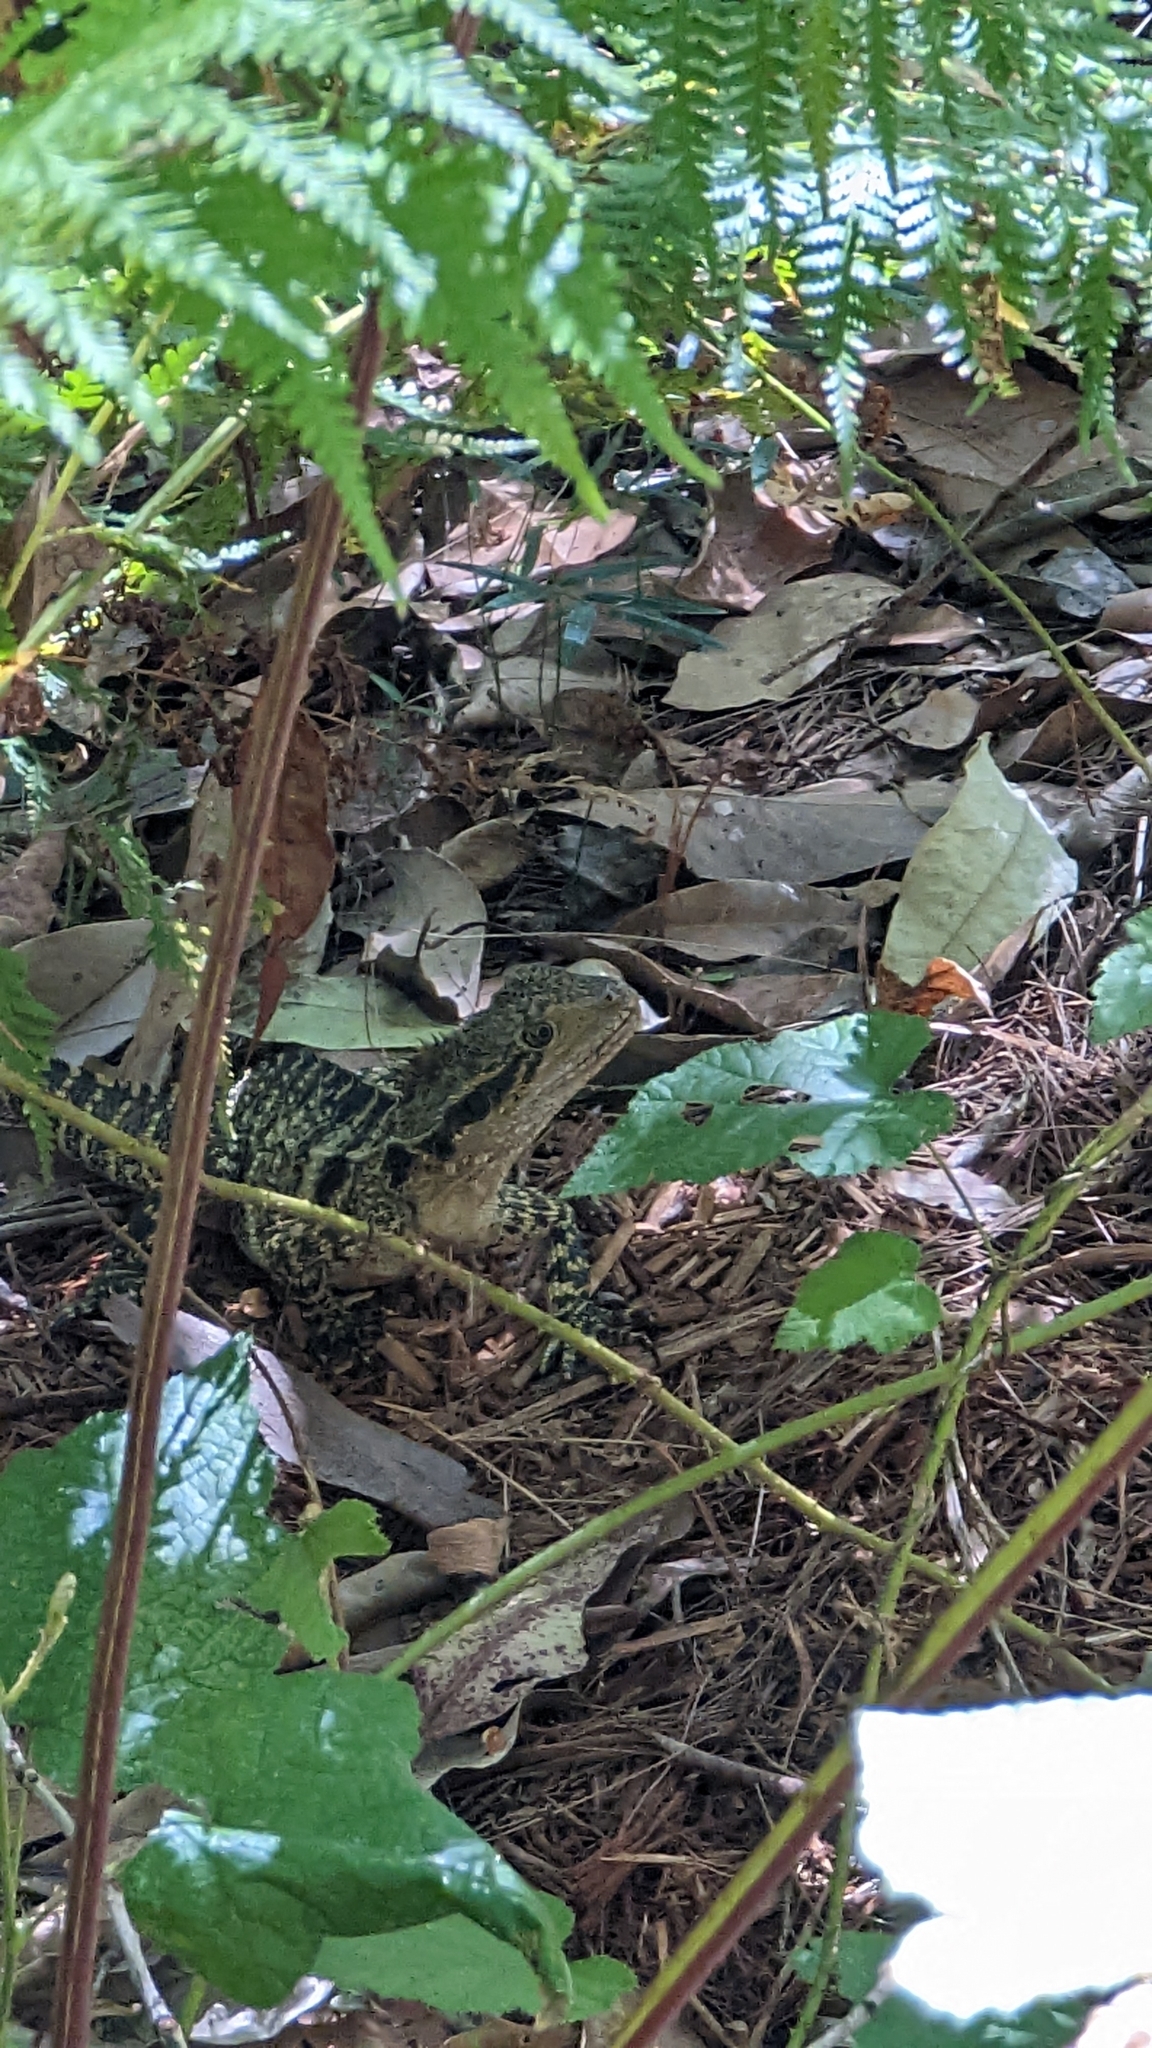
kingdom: Animalia
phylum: Chordata
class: Squamata
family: Agamidae
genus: Intellagama
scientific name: Intellagama lesueurii
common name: Eastern water dragon
